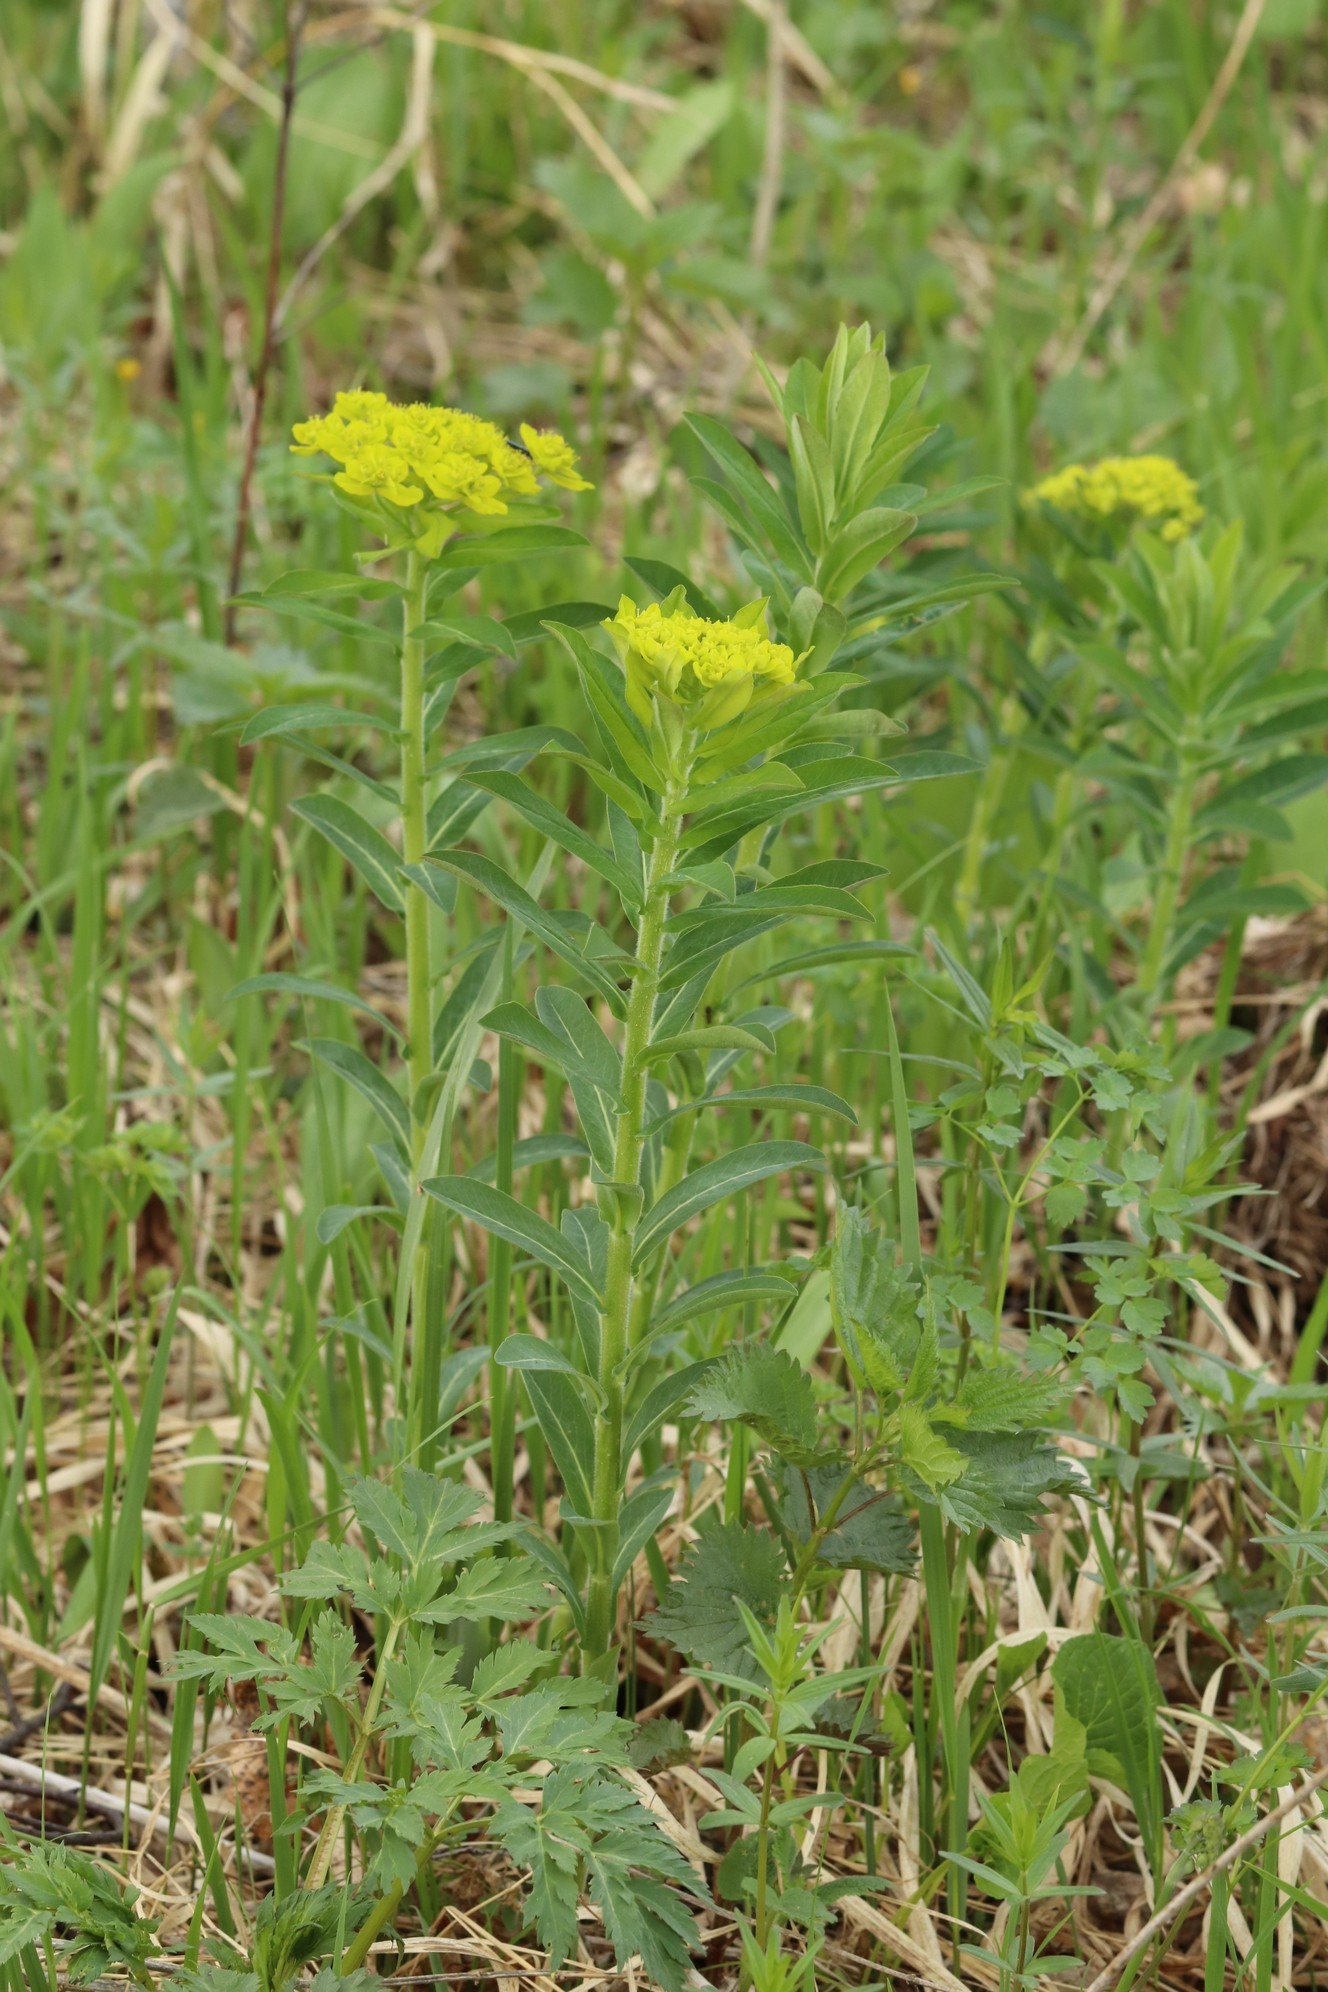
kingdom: Plantae
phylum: Tracheophyta
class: Magnoliopsida
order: Malpighiales
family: Euphorbiaceae
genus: Euphorbia
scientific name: Euphorbia pilosa
